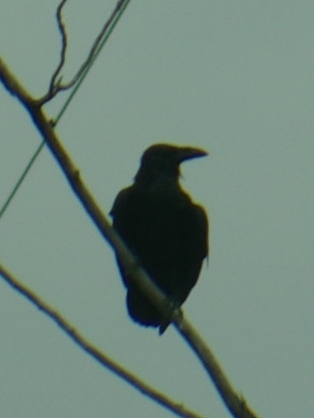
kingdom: Animalia
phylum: Chordata
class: Aves
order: Passeriformes
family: Corvidae
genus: Corvus
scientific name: Corvus corax
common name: Common raven
